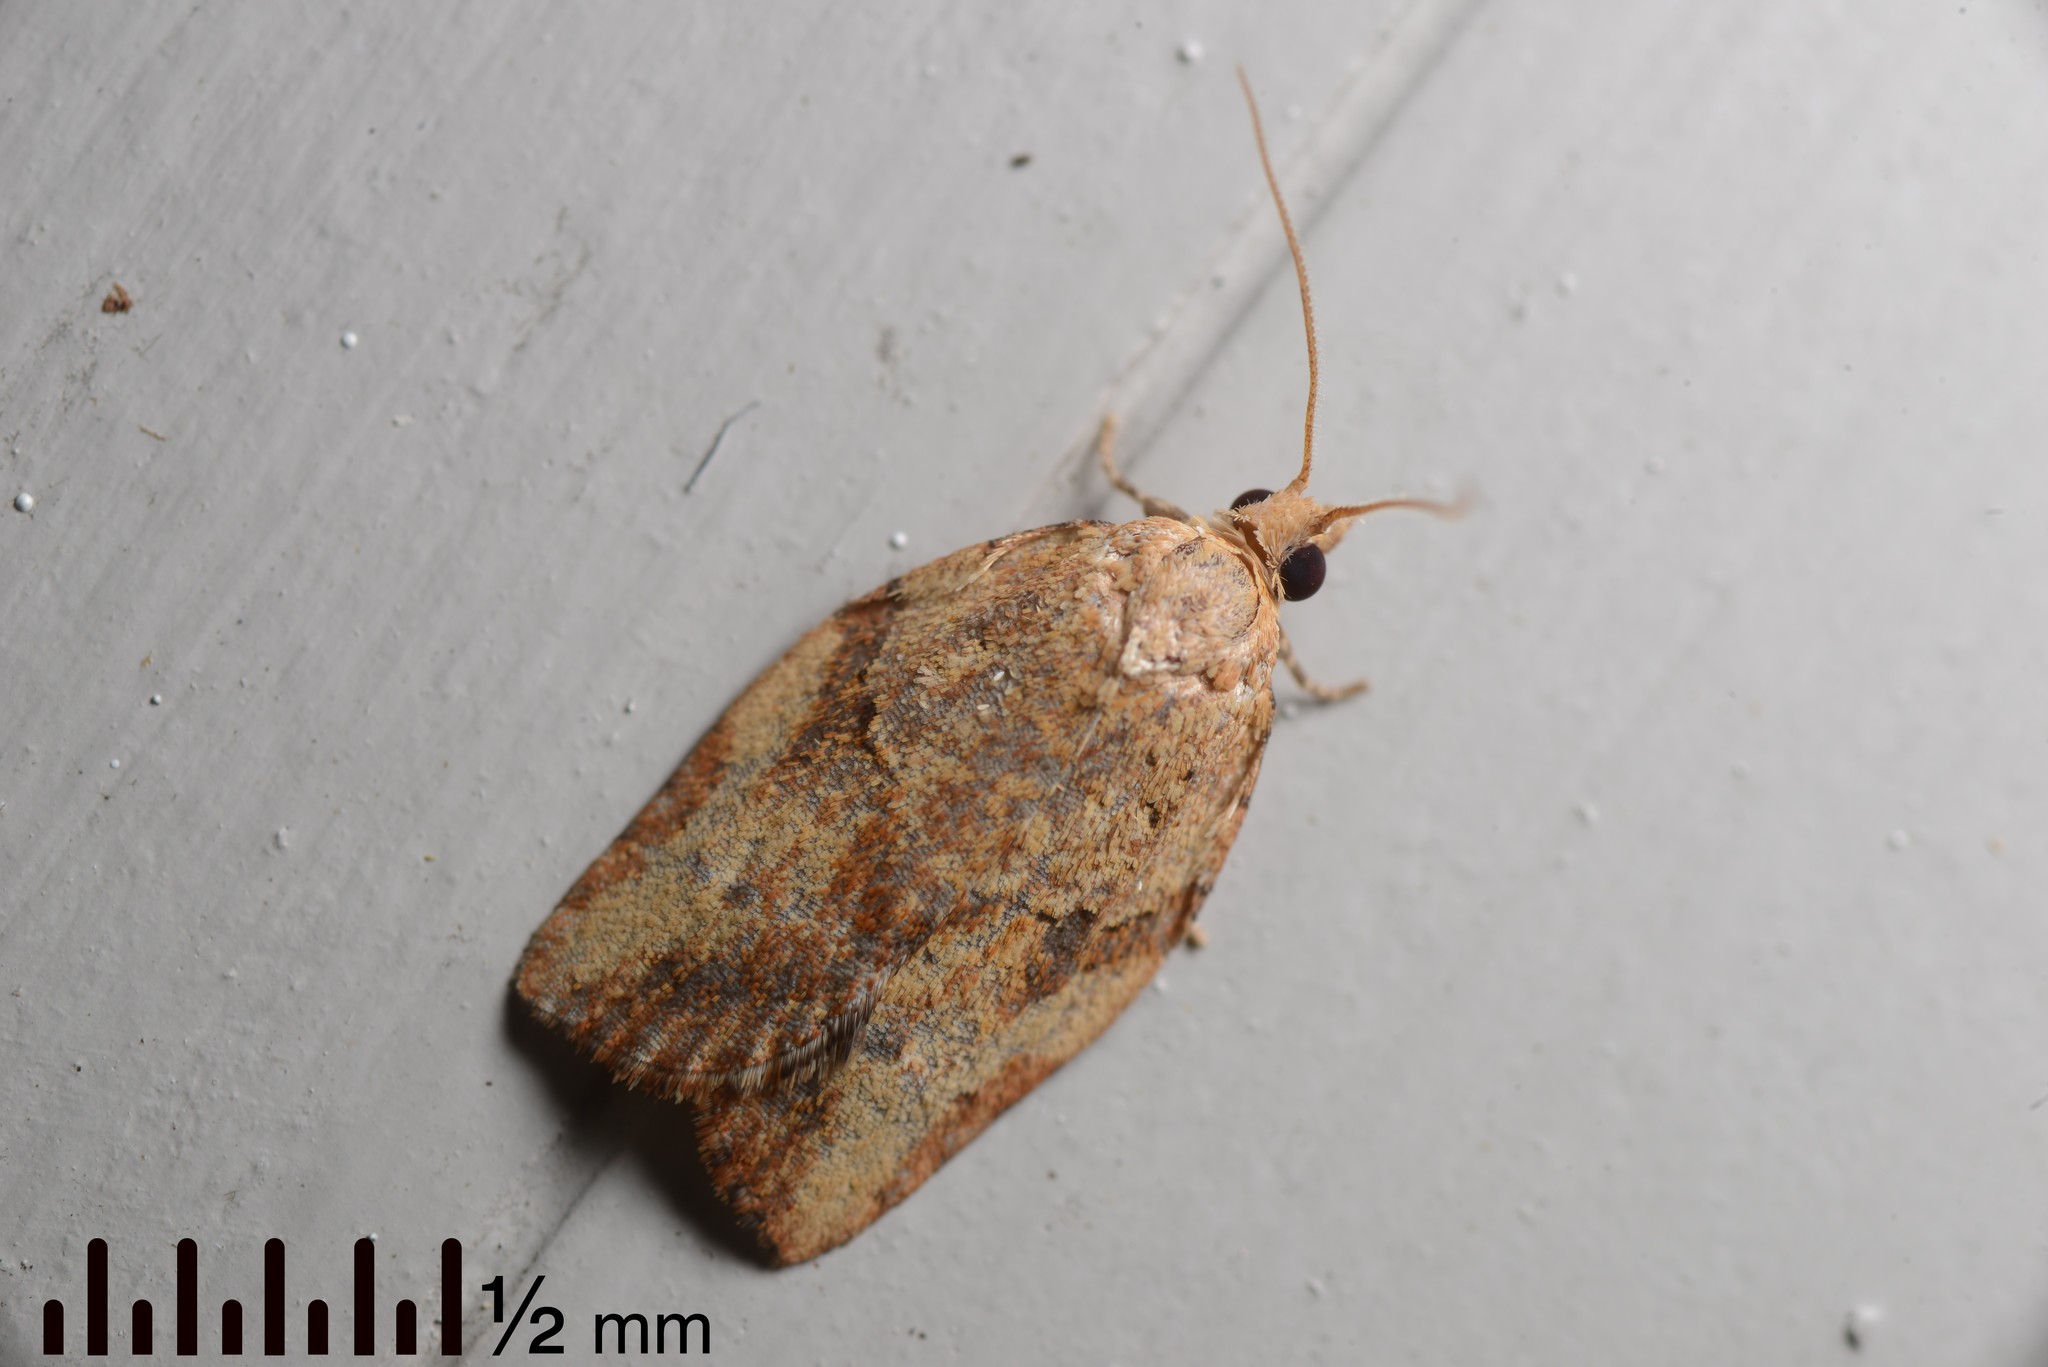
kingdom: Animalia
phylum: Arthropoda
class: Insecta
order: Lepidoptera
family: Tortricidae
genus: Epiphyas
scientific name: Epiphyas postvittana
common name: Light brown apple moth
